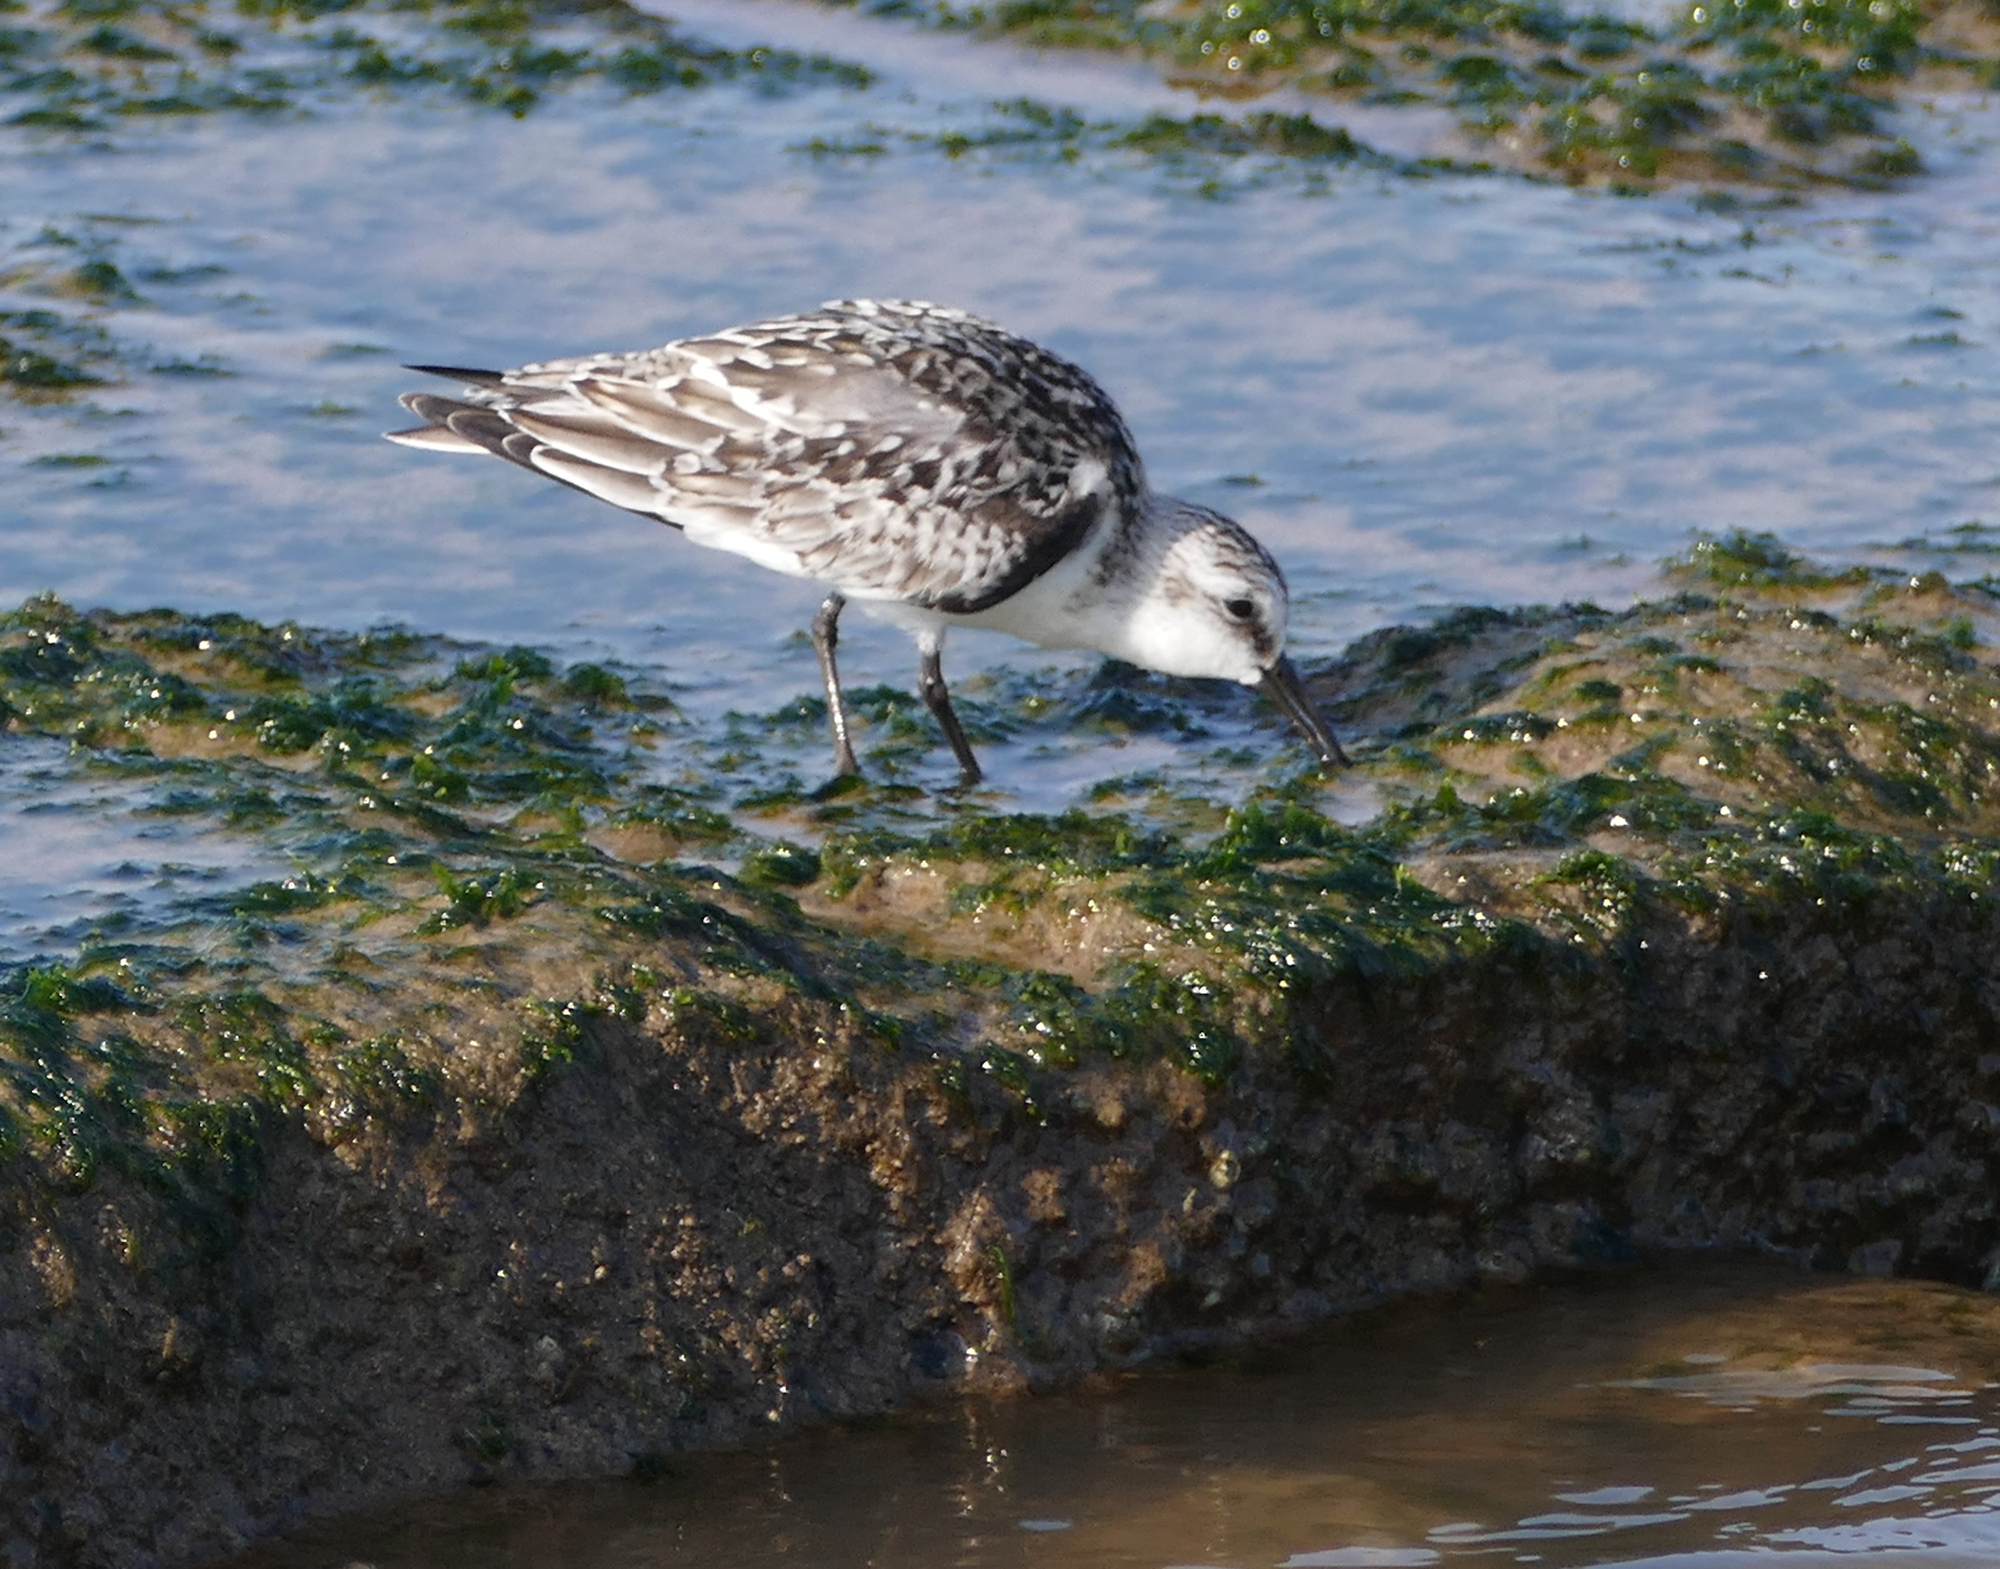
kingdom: Animalia
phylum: Chordata
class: Aves
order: Charadriiformes
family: Scolopacidae
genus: Calidris
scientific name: Calidris alba
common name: Sanderling
